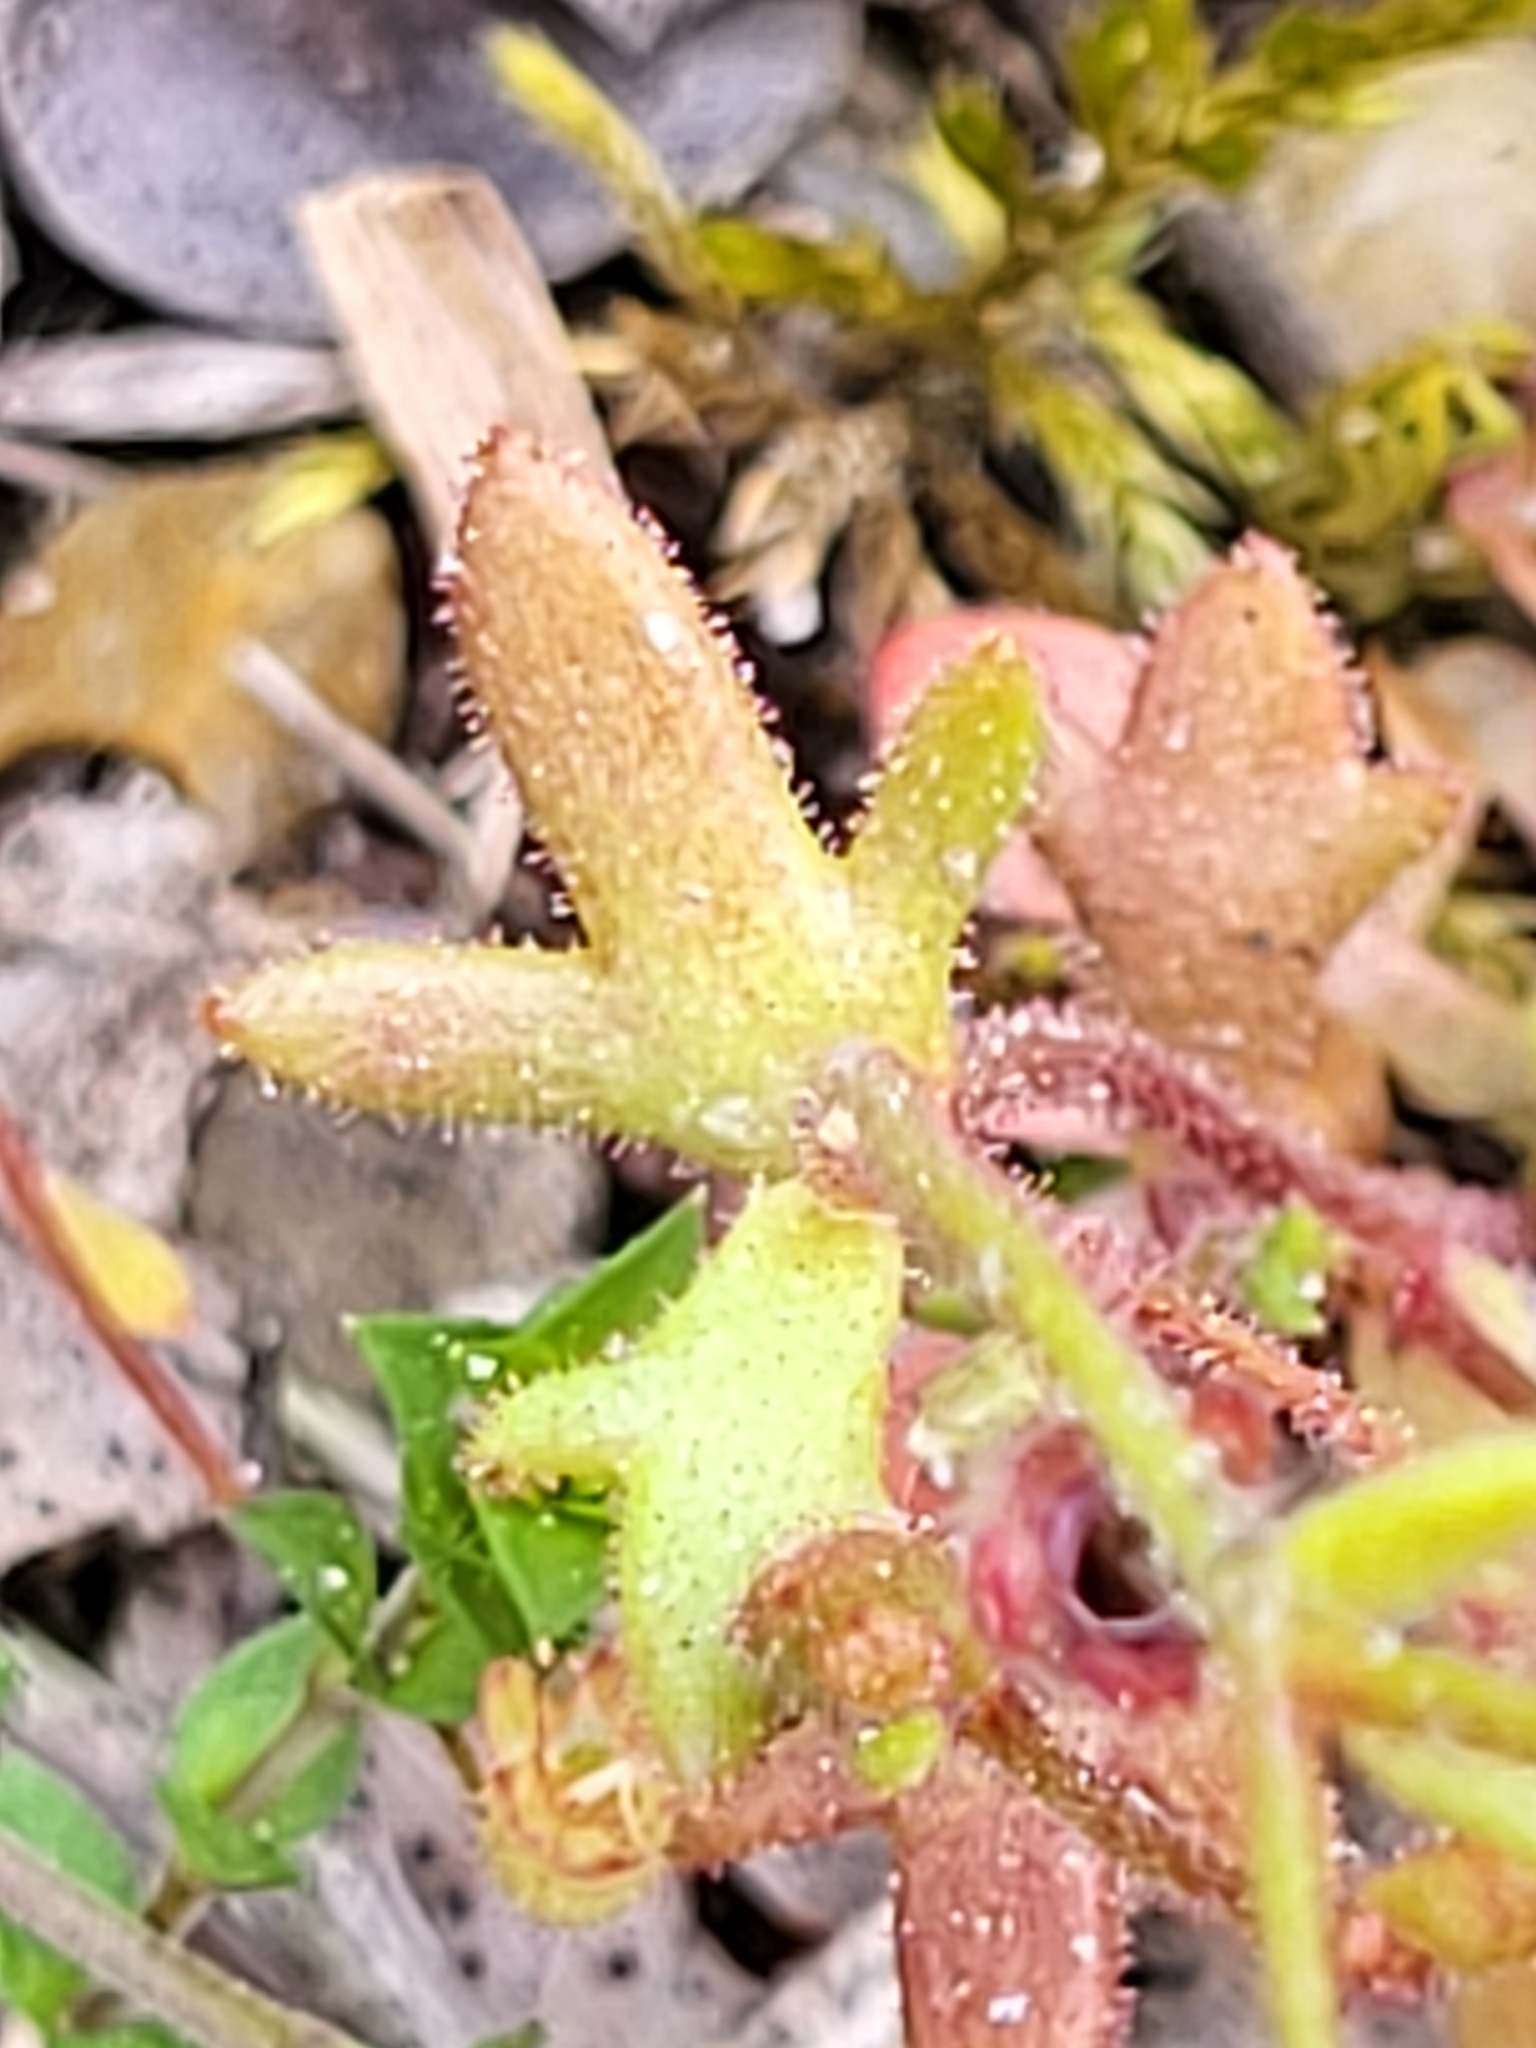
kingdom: Plantae
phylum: Tracheophyta
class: Magnoliopsida
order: Saxifragales
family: Saxifragaceae
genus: Saxifraga
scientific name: Saxifraga tridactylites
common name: Rue-leaved saxifrage
